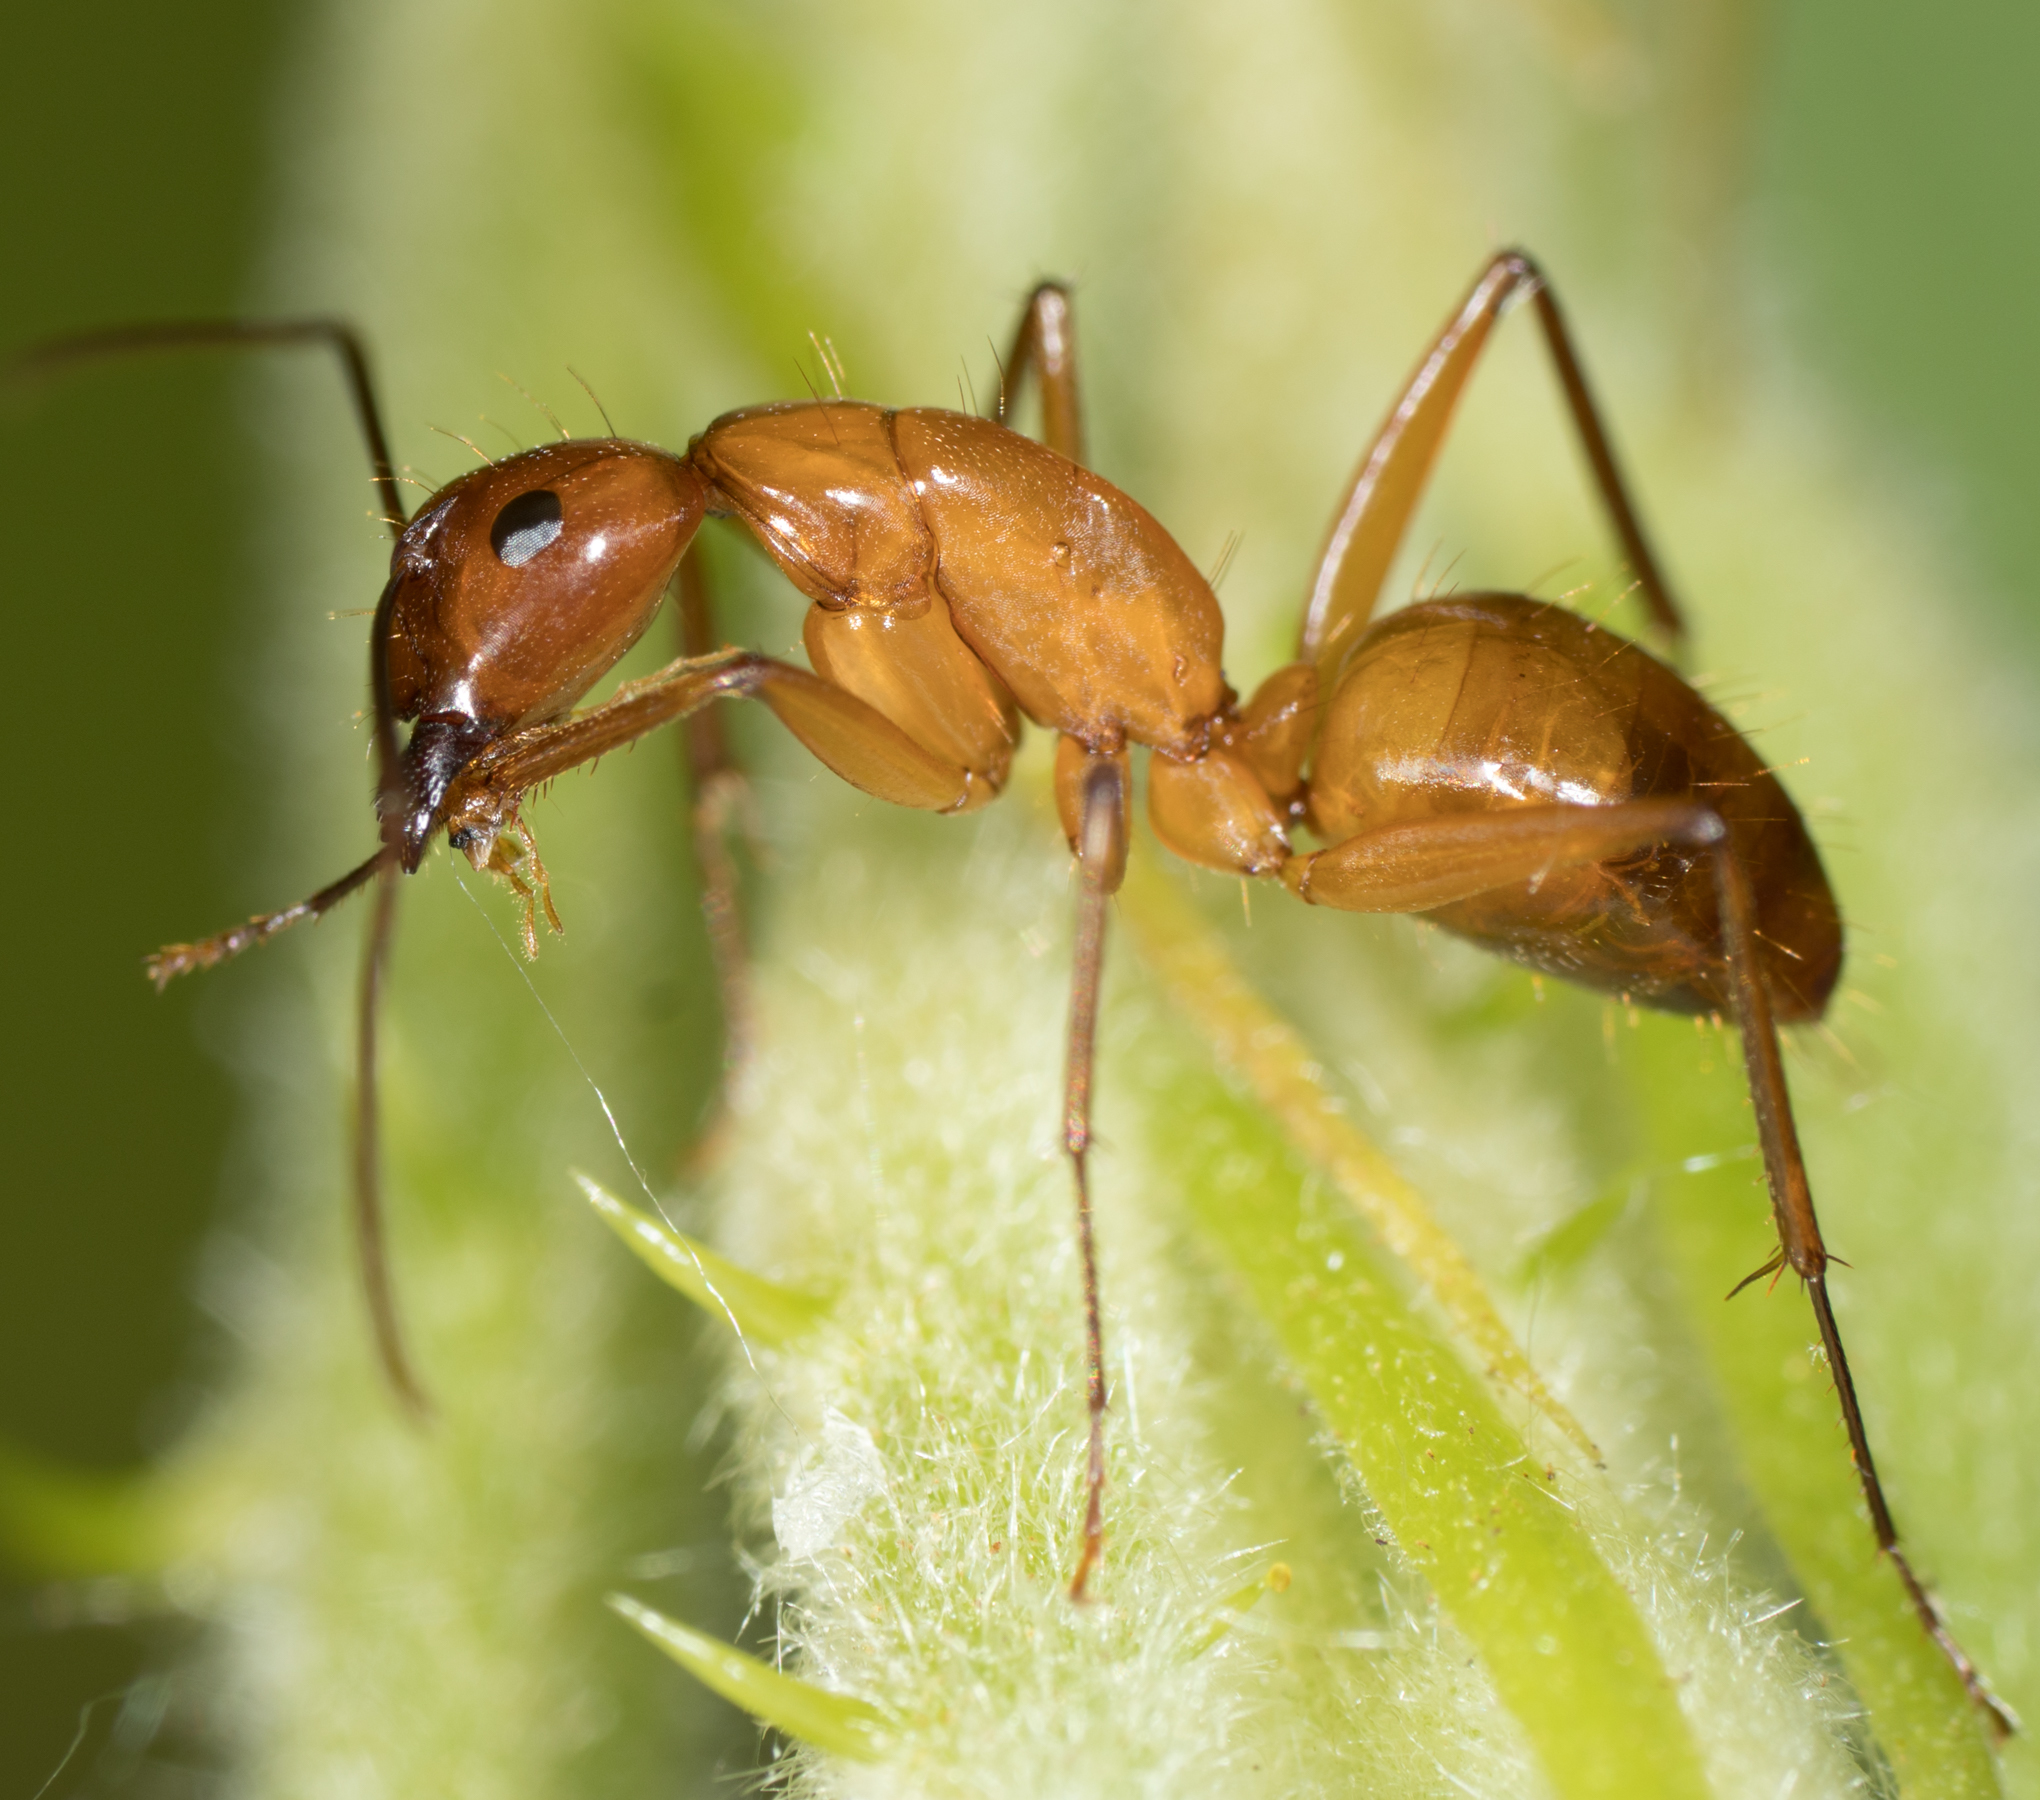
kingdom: Animalia
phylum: Arthropoda
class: Insecta
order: Hymenoptera
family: Formicidae
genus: Camponotus
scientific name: Camponotus castaneus
